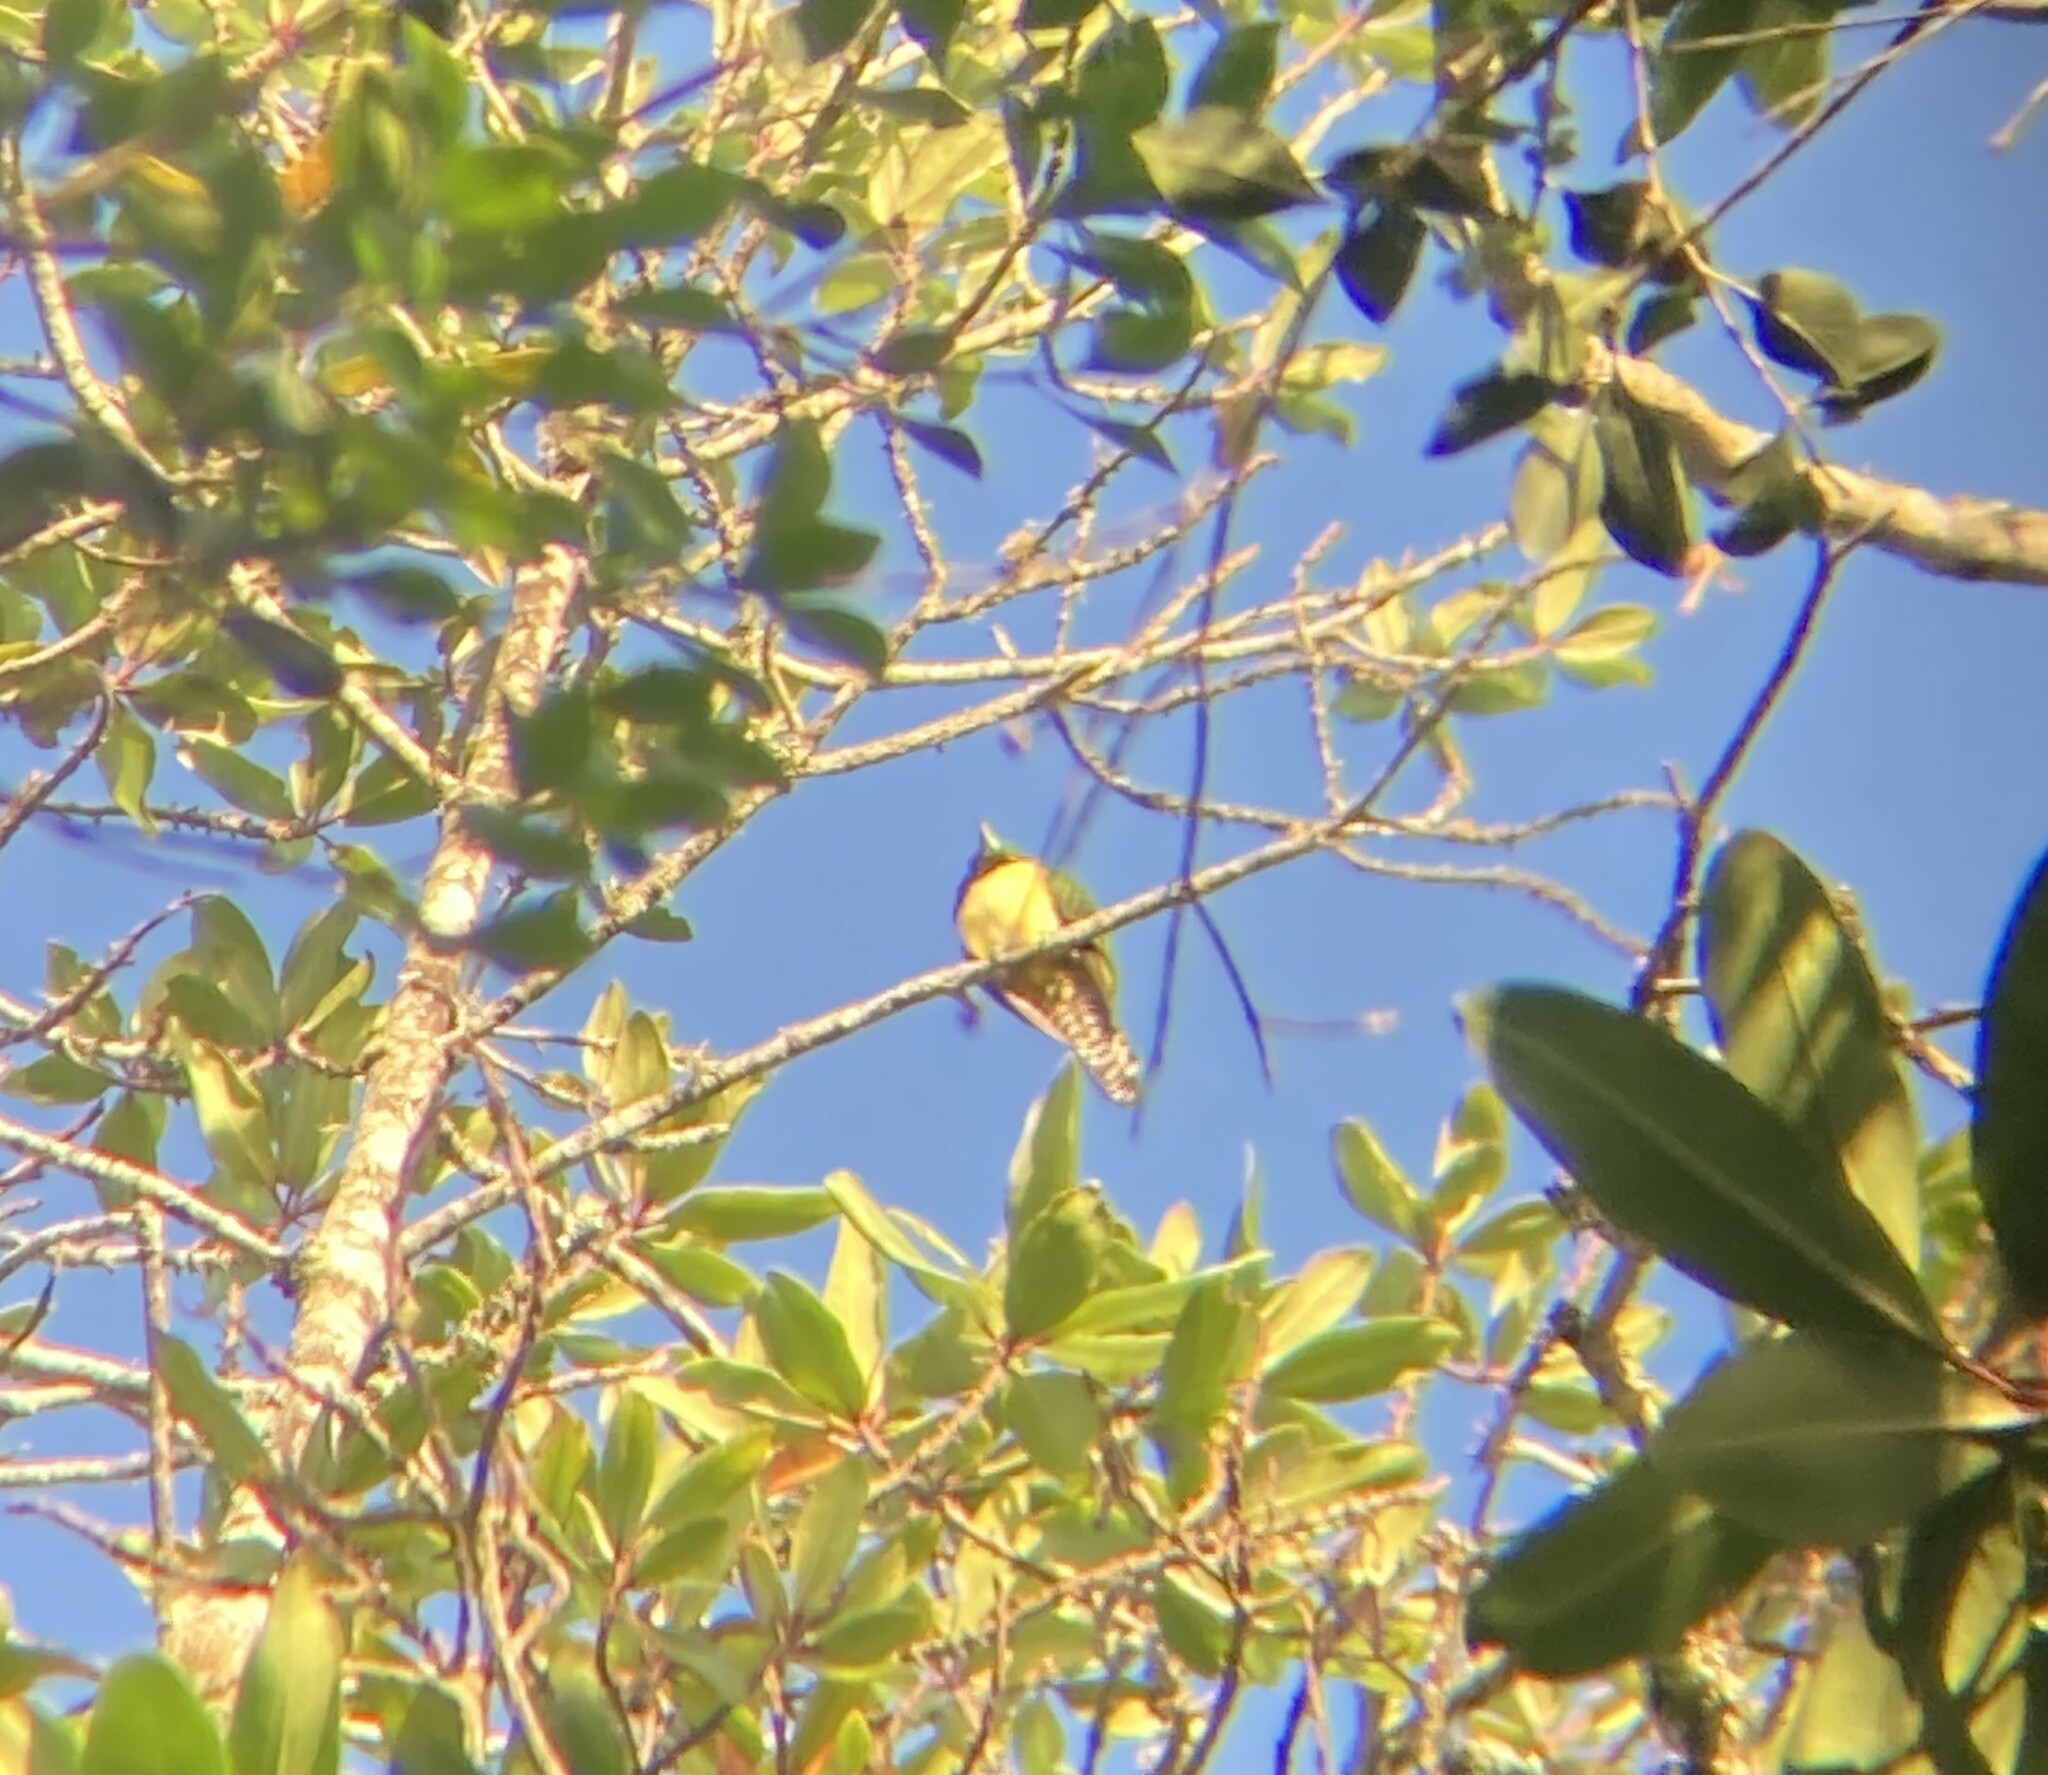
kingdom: Animalia
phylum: Chordata
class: Aves
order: Cuculiformes
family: Cuculidae
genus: Chrysococcyx
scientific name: Chrysococcyx cupreus
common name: African emerald cuckoo
